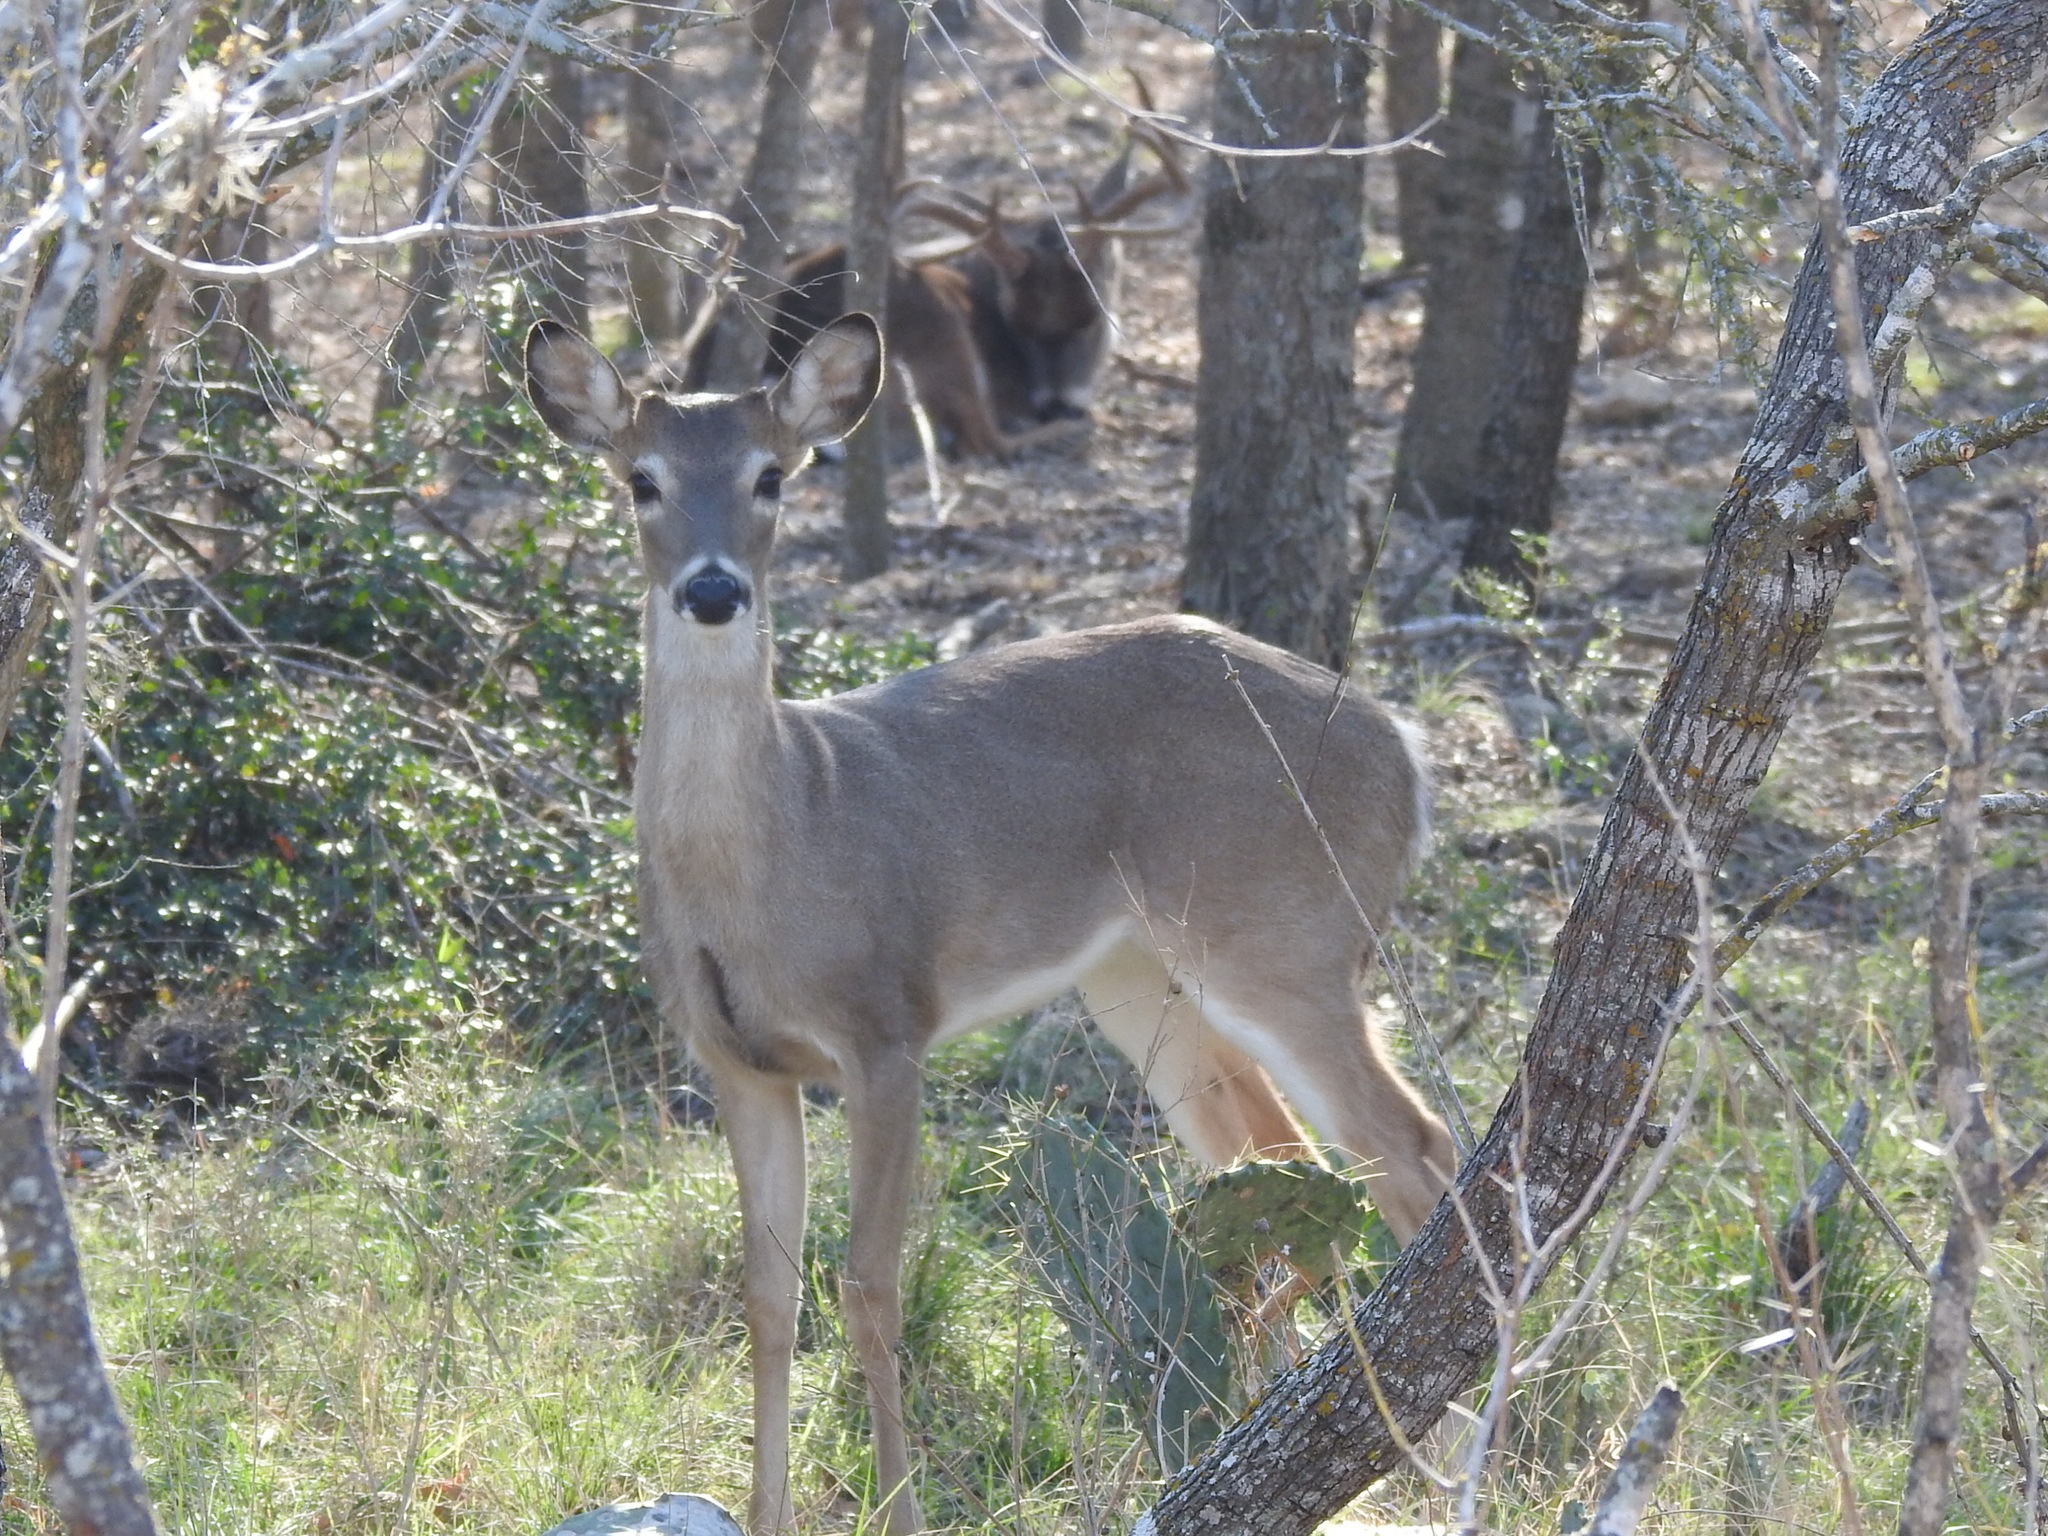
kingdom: Animalia
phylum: Chordata
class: Mammalia
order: Artiodactyla
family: Cervidae
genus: Odocoileus
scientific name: Odocoileus virginianus
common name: White-tailed deer
